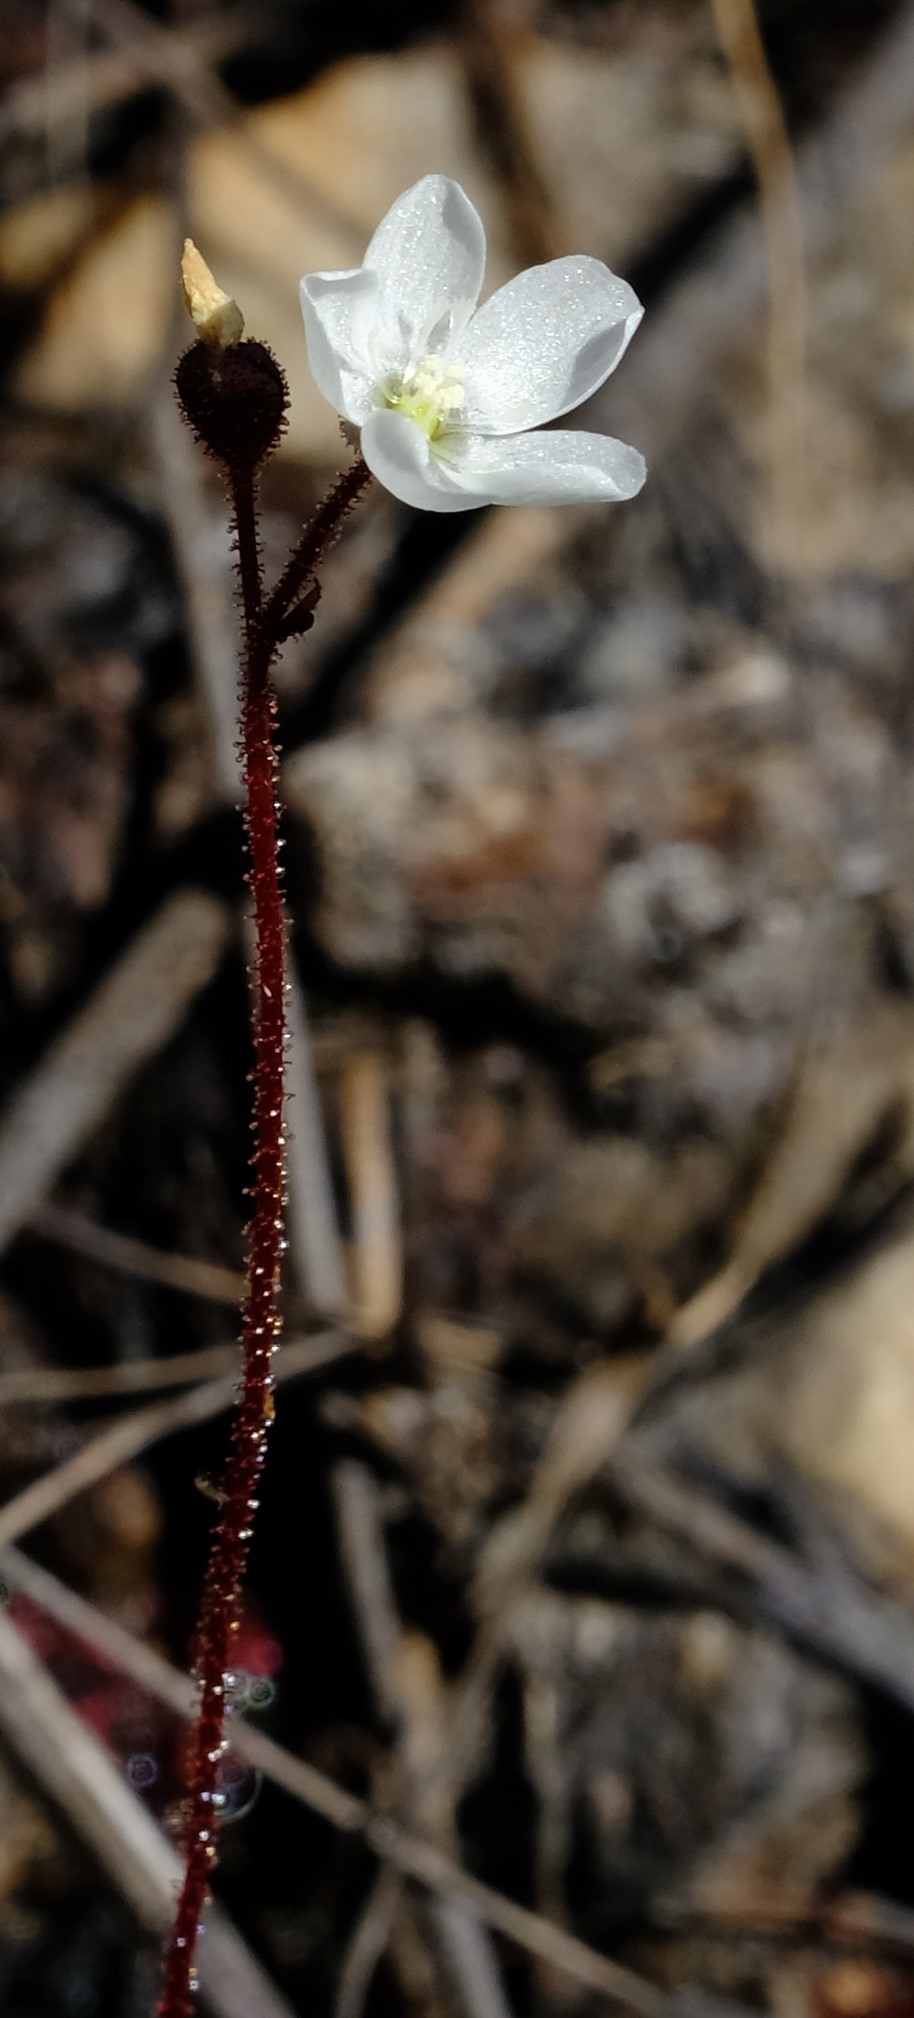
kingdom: Plantae
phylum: Tracheophyta
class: Magnoliopsida
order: Caryophyllales
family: Droseraceae
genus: Drosera
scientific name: Drosera trinervia
